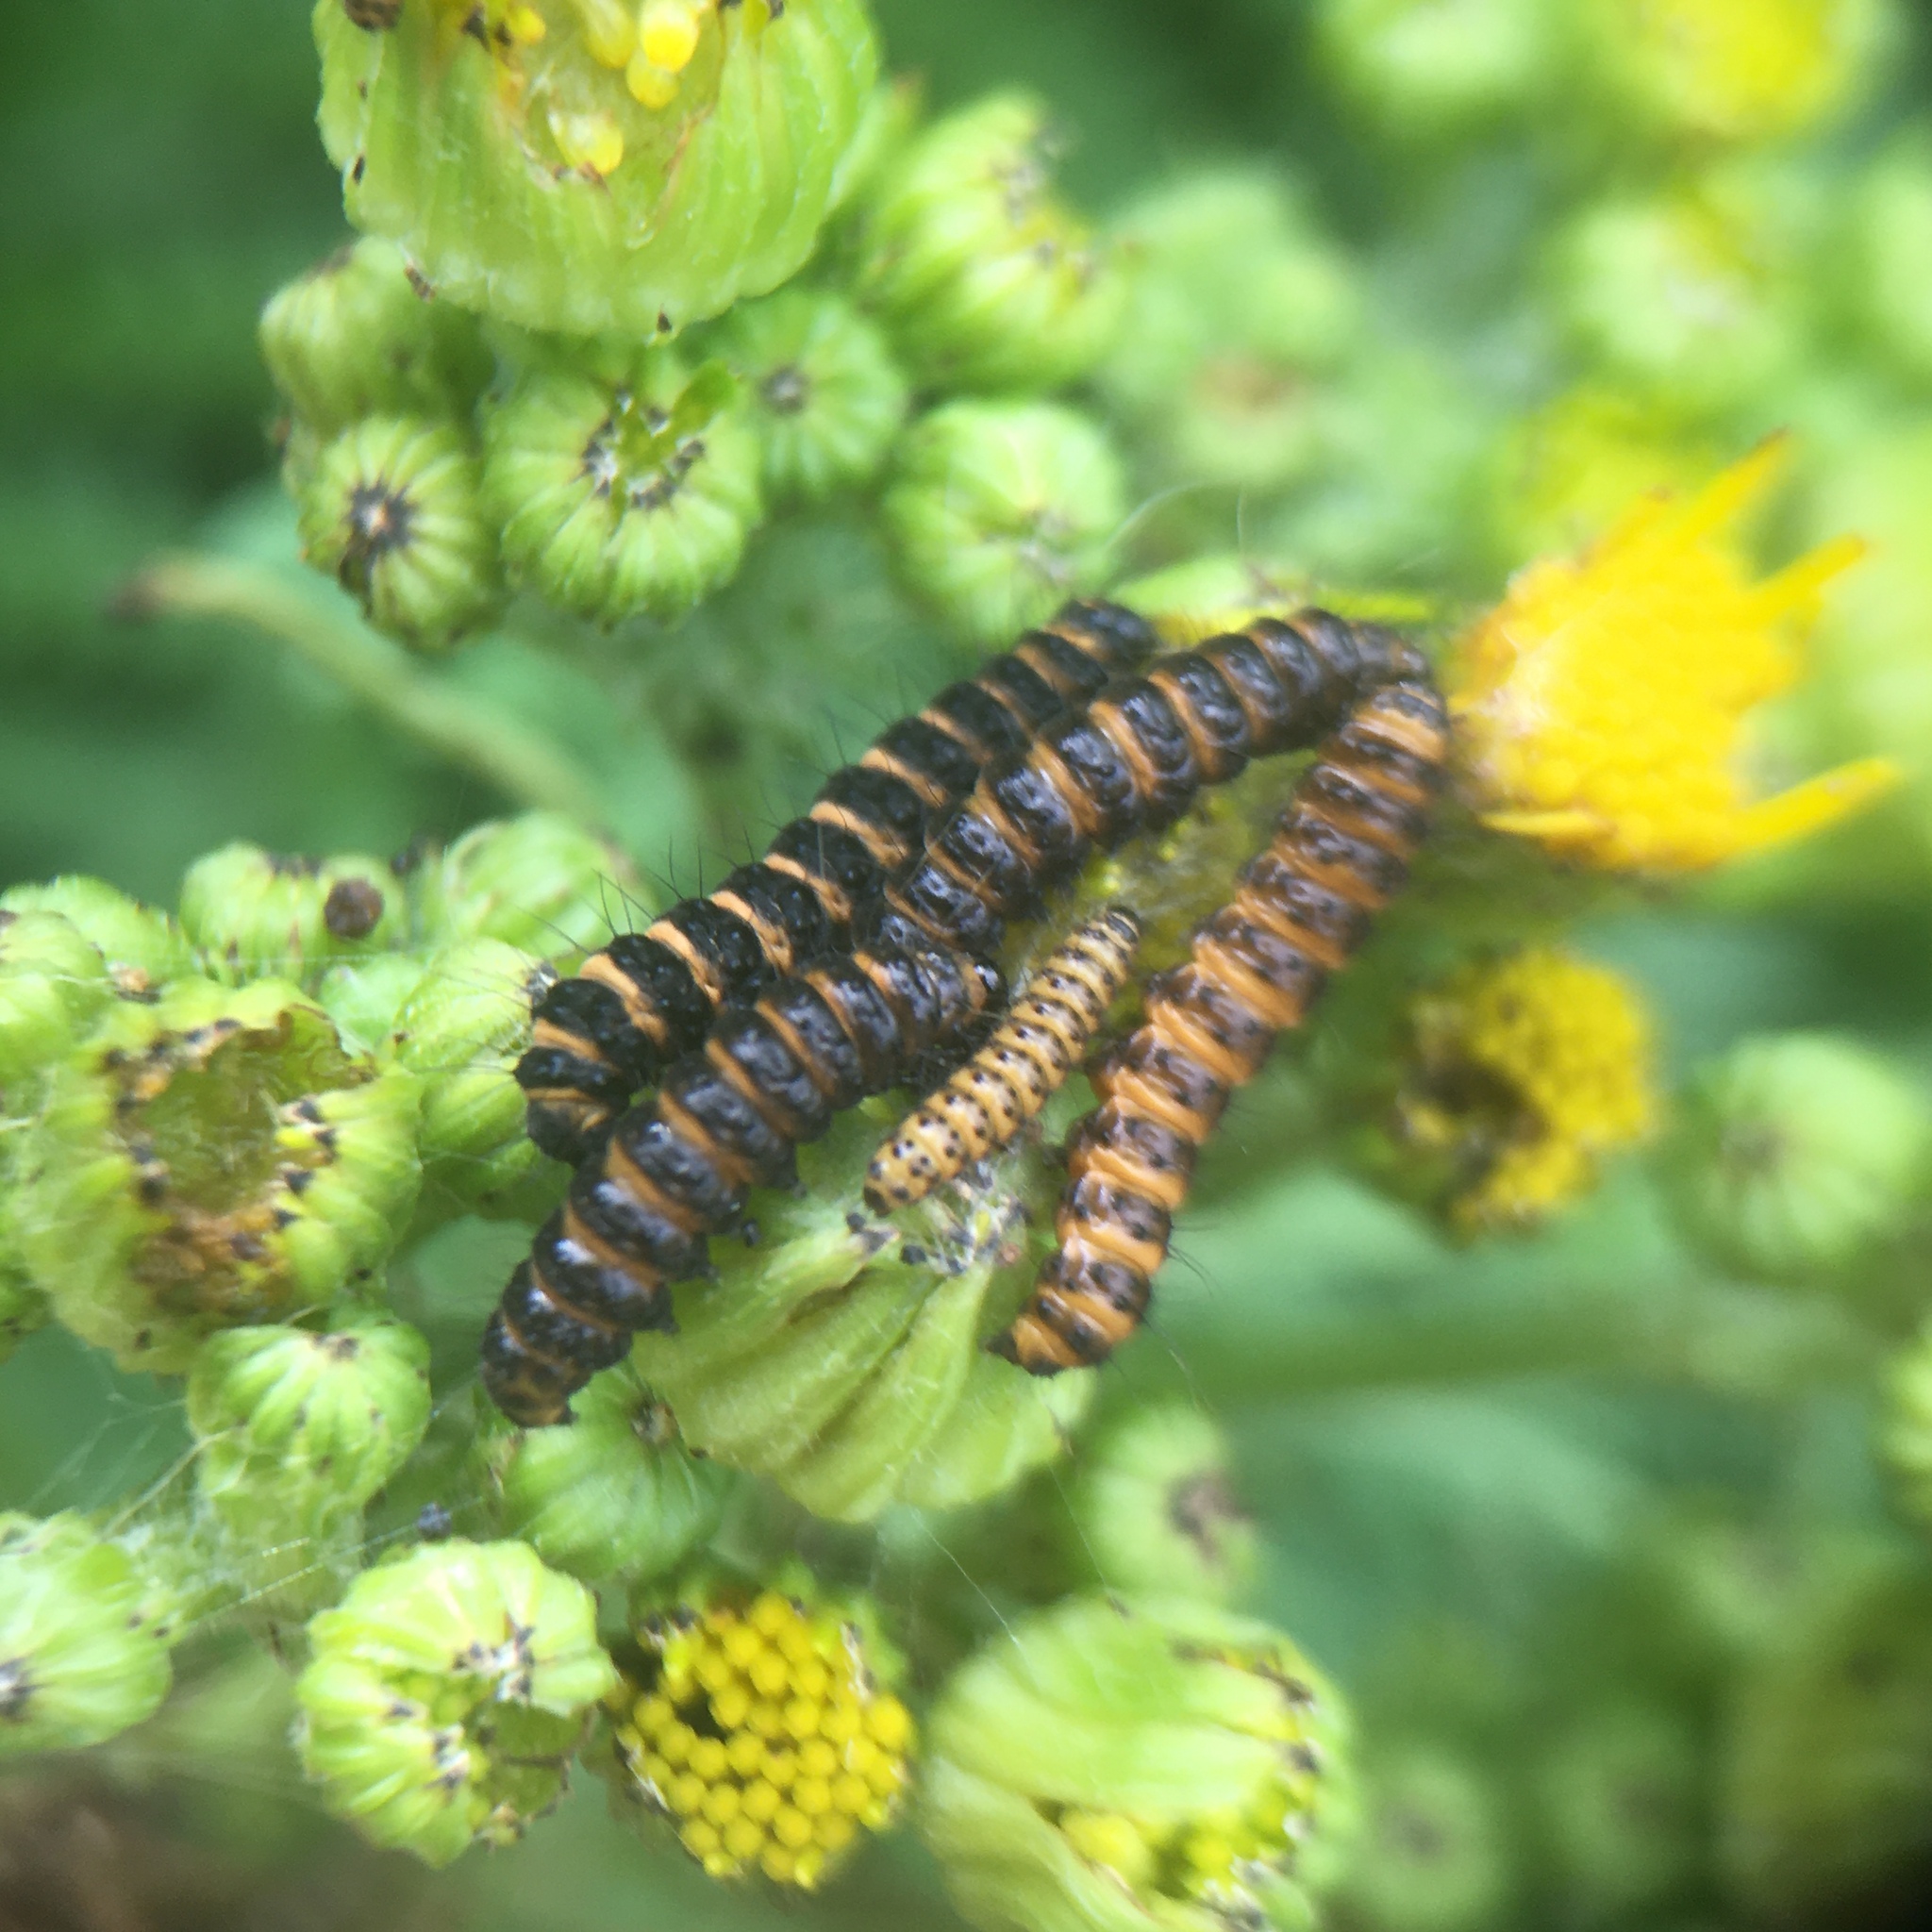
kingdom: Animalia
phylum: Arthropoda
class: Insecta
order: Lepidoptera
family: Erebidae
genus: Tyria
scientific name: Tyria jacobaeae
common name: Cinnabar
